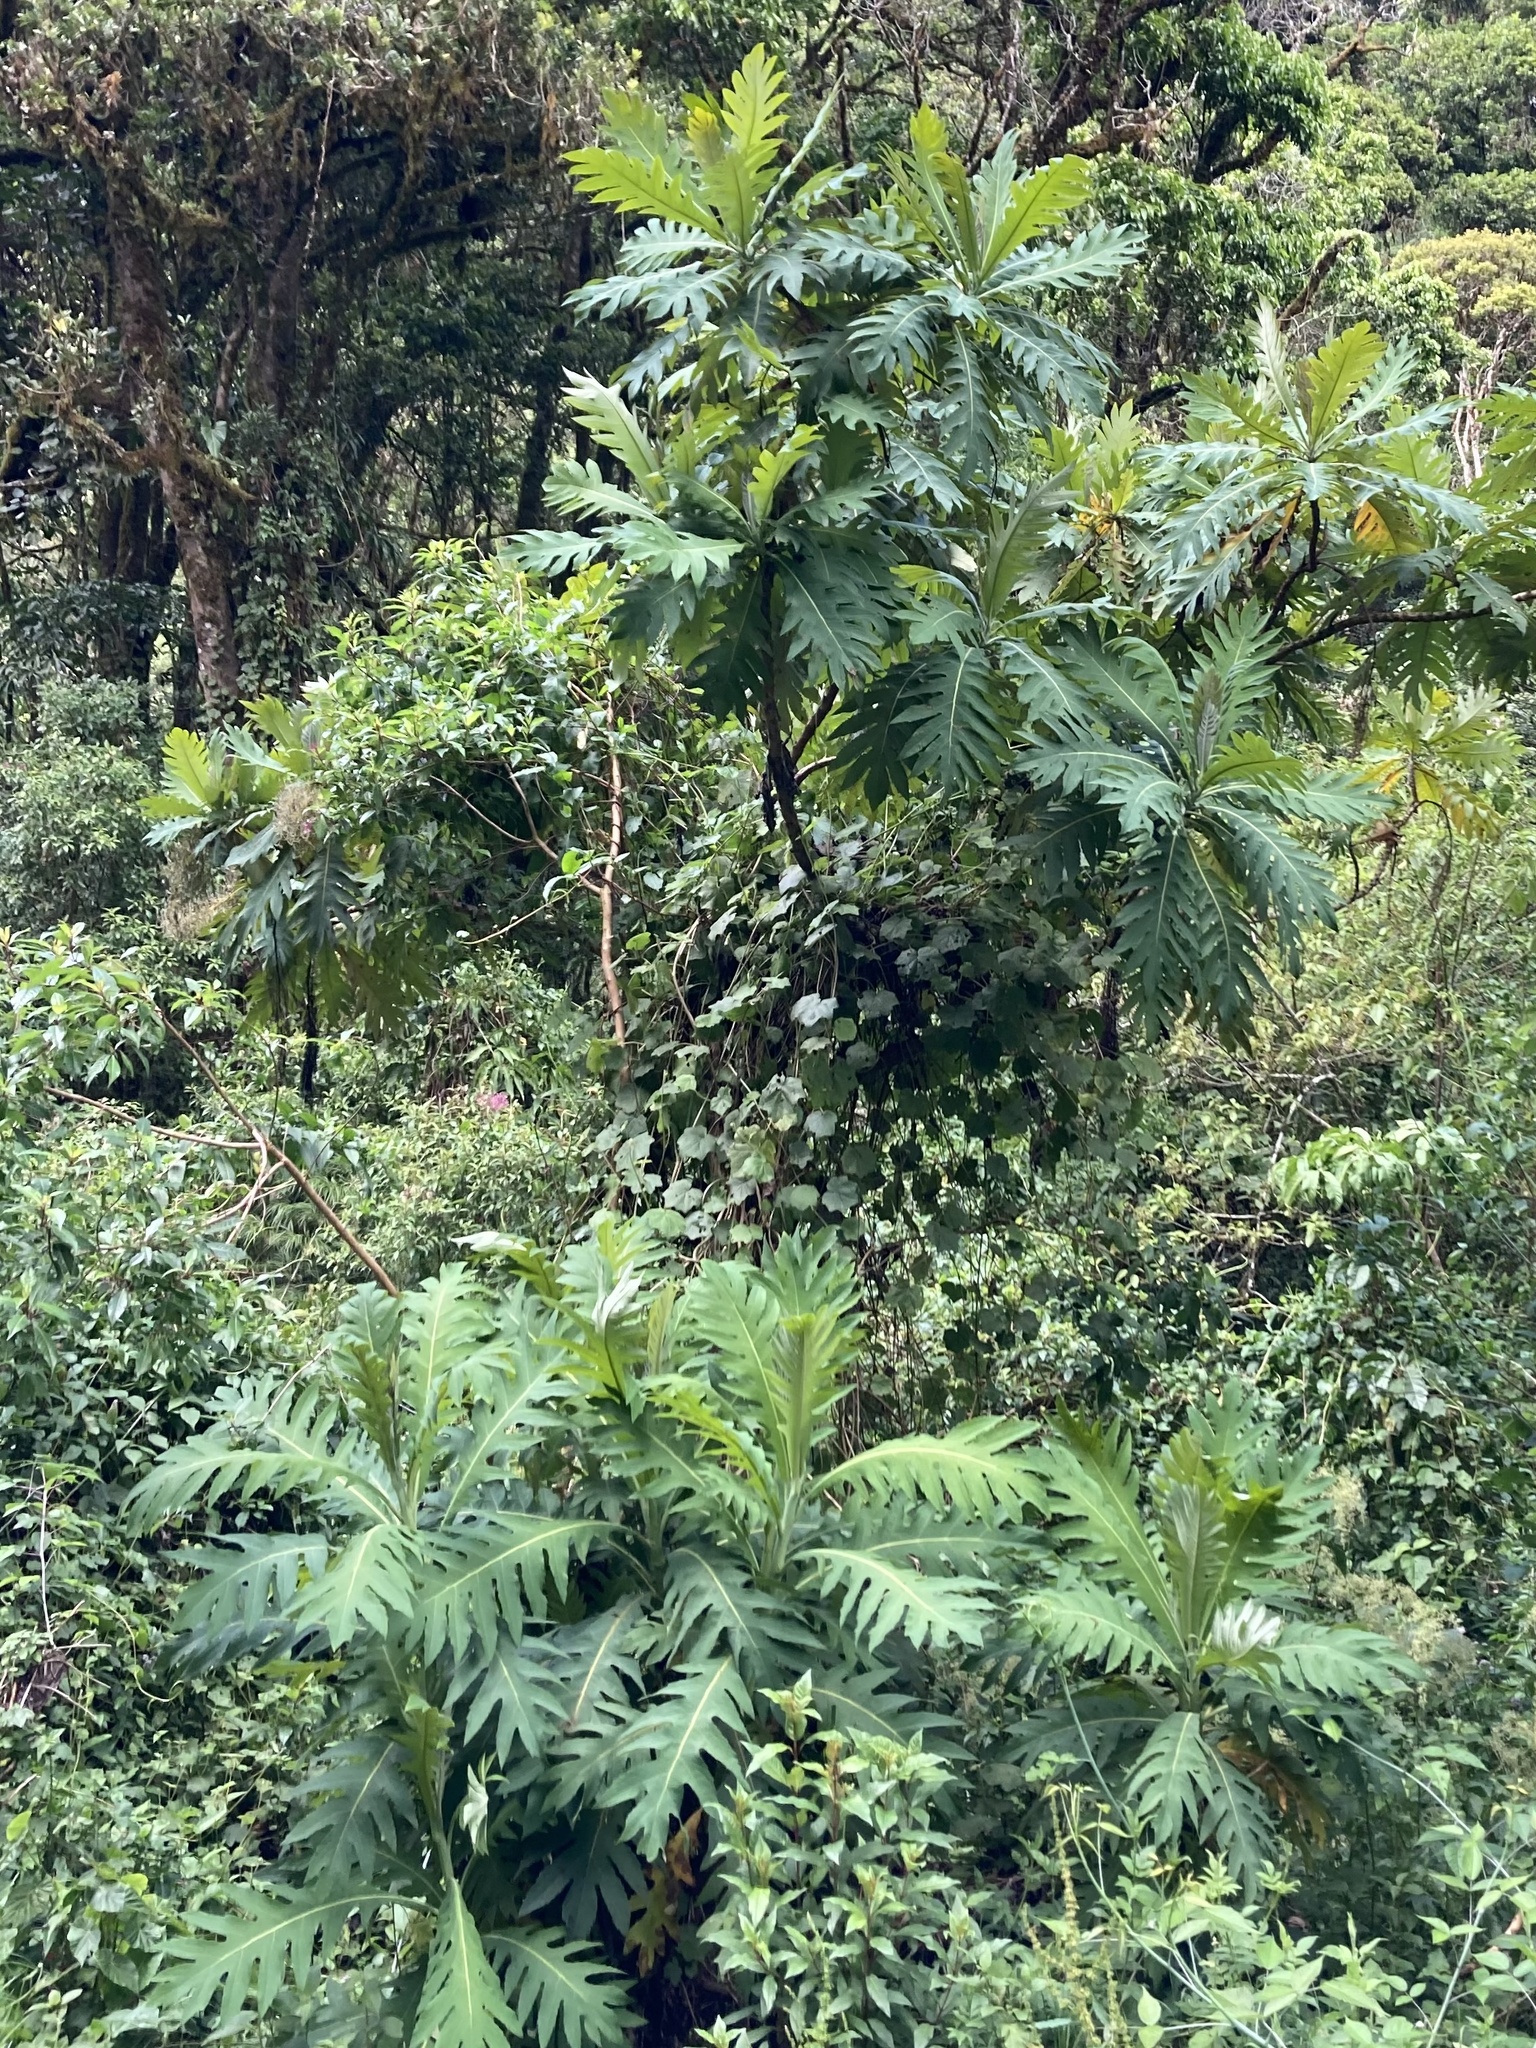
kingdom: Plantae
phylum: Tracheophyta
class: Magnoliopsida
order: Ranunculales
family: Papaveraceae
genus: Bocconia
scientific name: Bocconia frutescens
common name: Tree poppy
